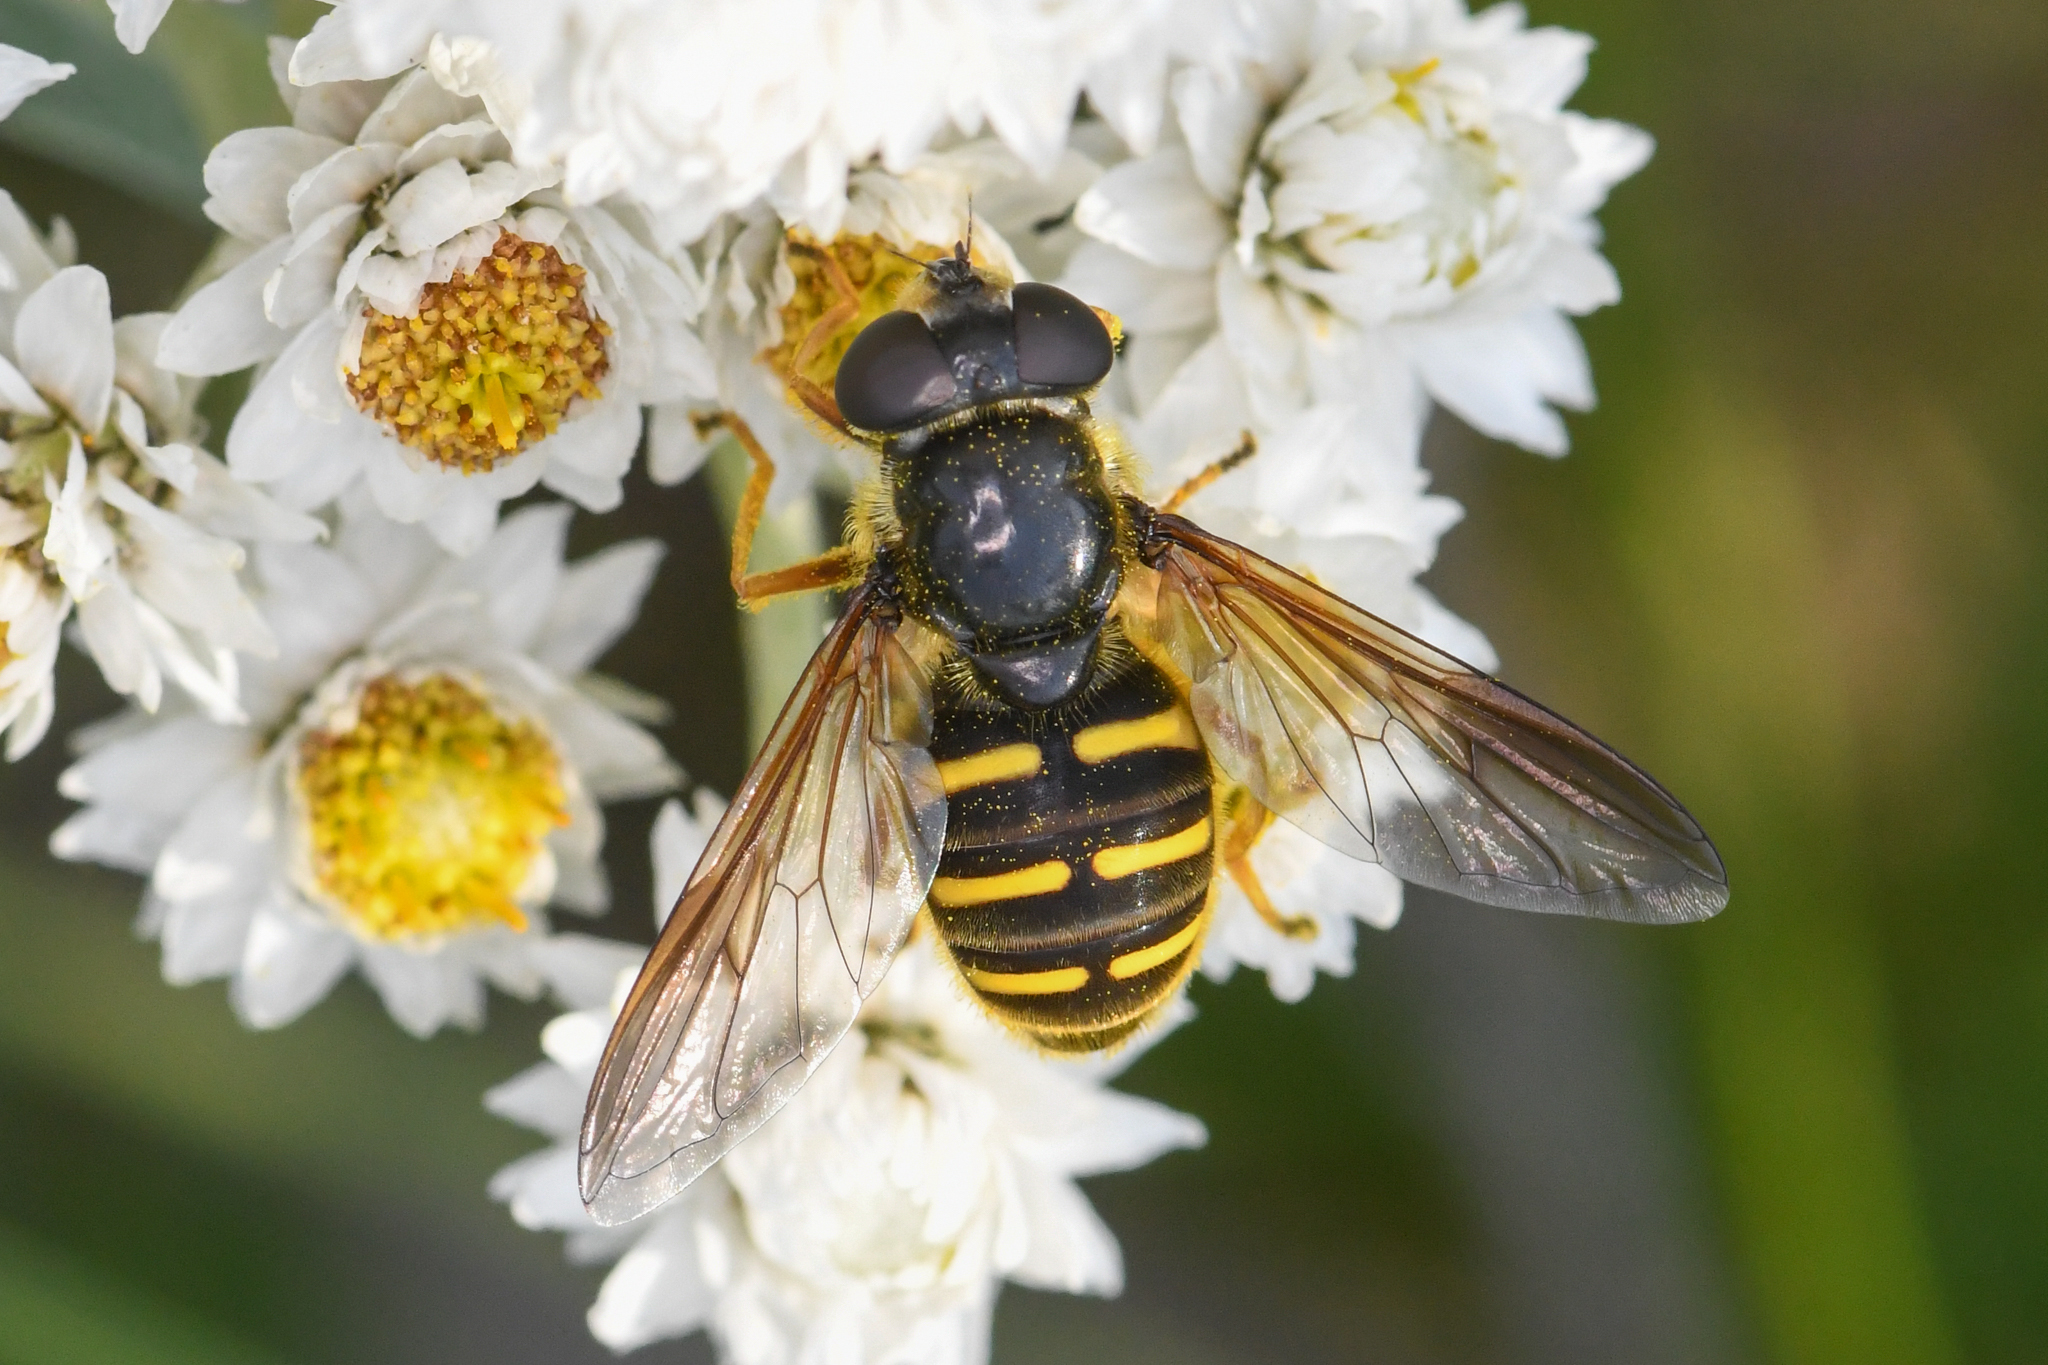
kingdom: Animalia
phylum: Arthropoda
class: Insecta
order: Diptera
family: Syrphidae
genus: Sericomyia
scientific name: Sericomyia chalcopyga
